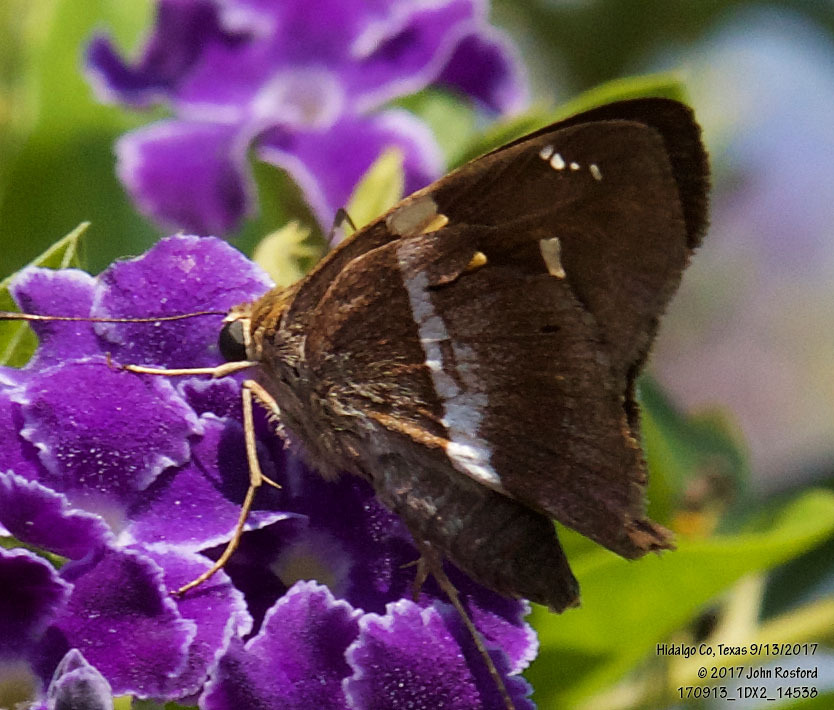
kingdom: Animalia
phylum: Arthropoda
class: Insecta
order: Lepidoptera
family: Hesperiidae
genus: Aguna
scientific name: Aguna asander
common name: Gold-spotted aguna
